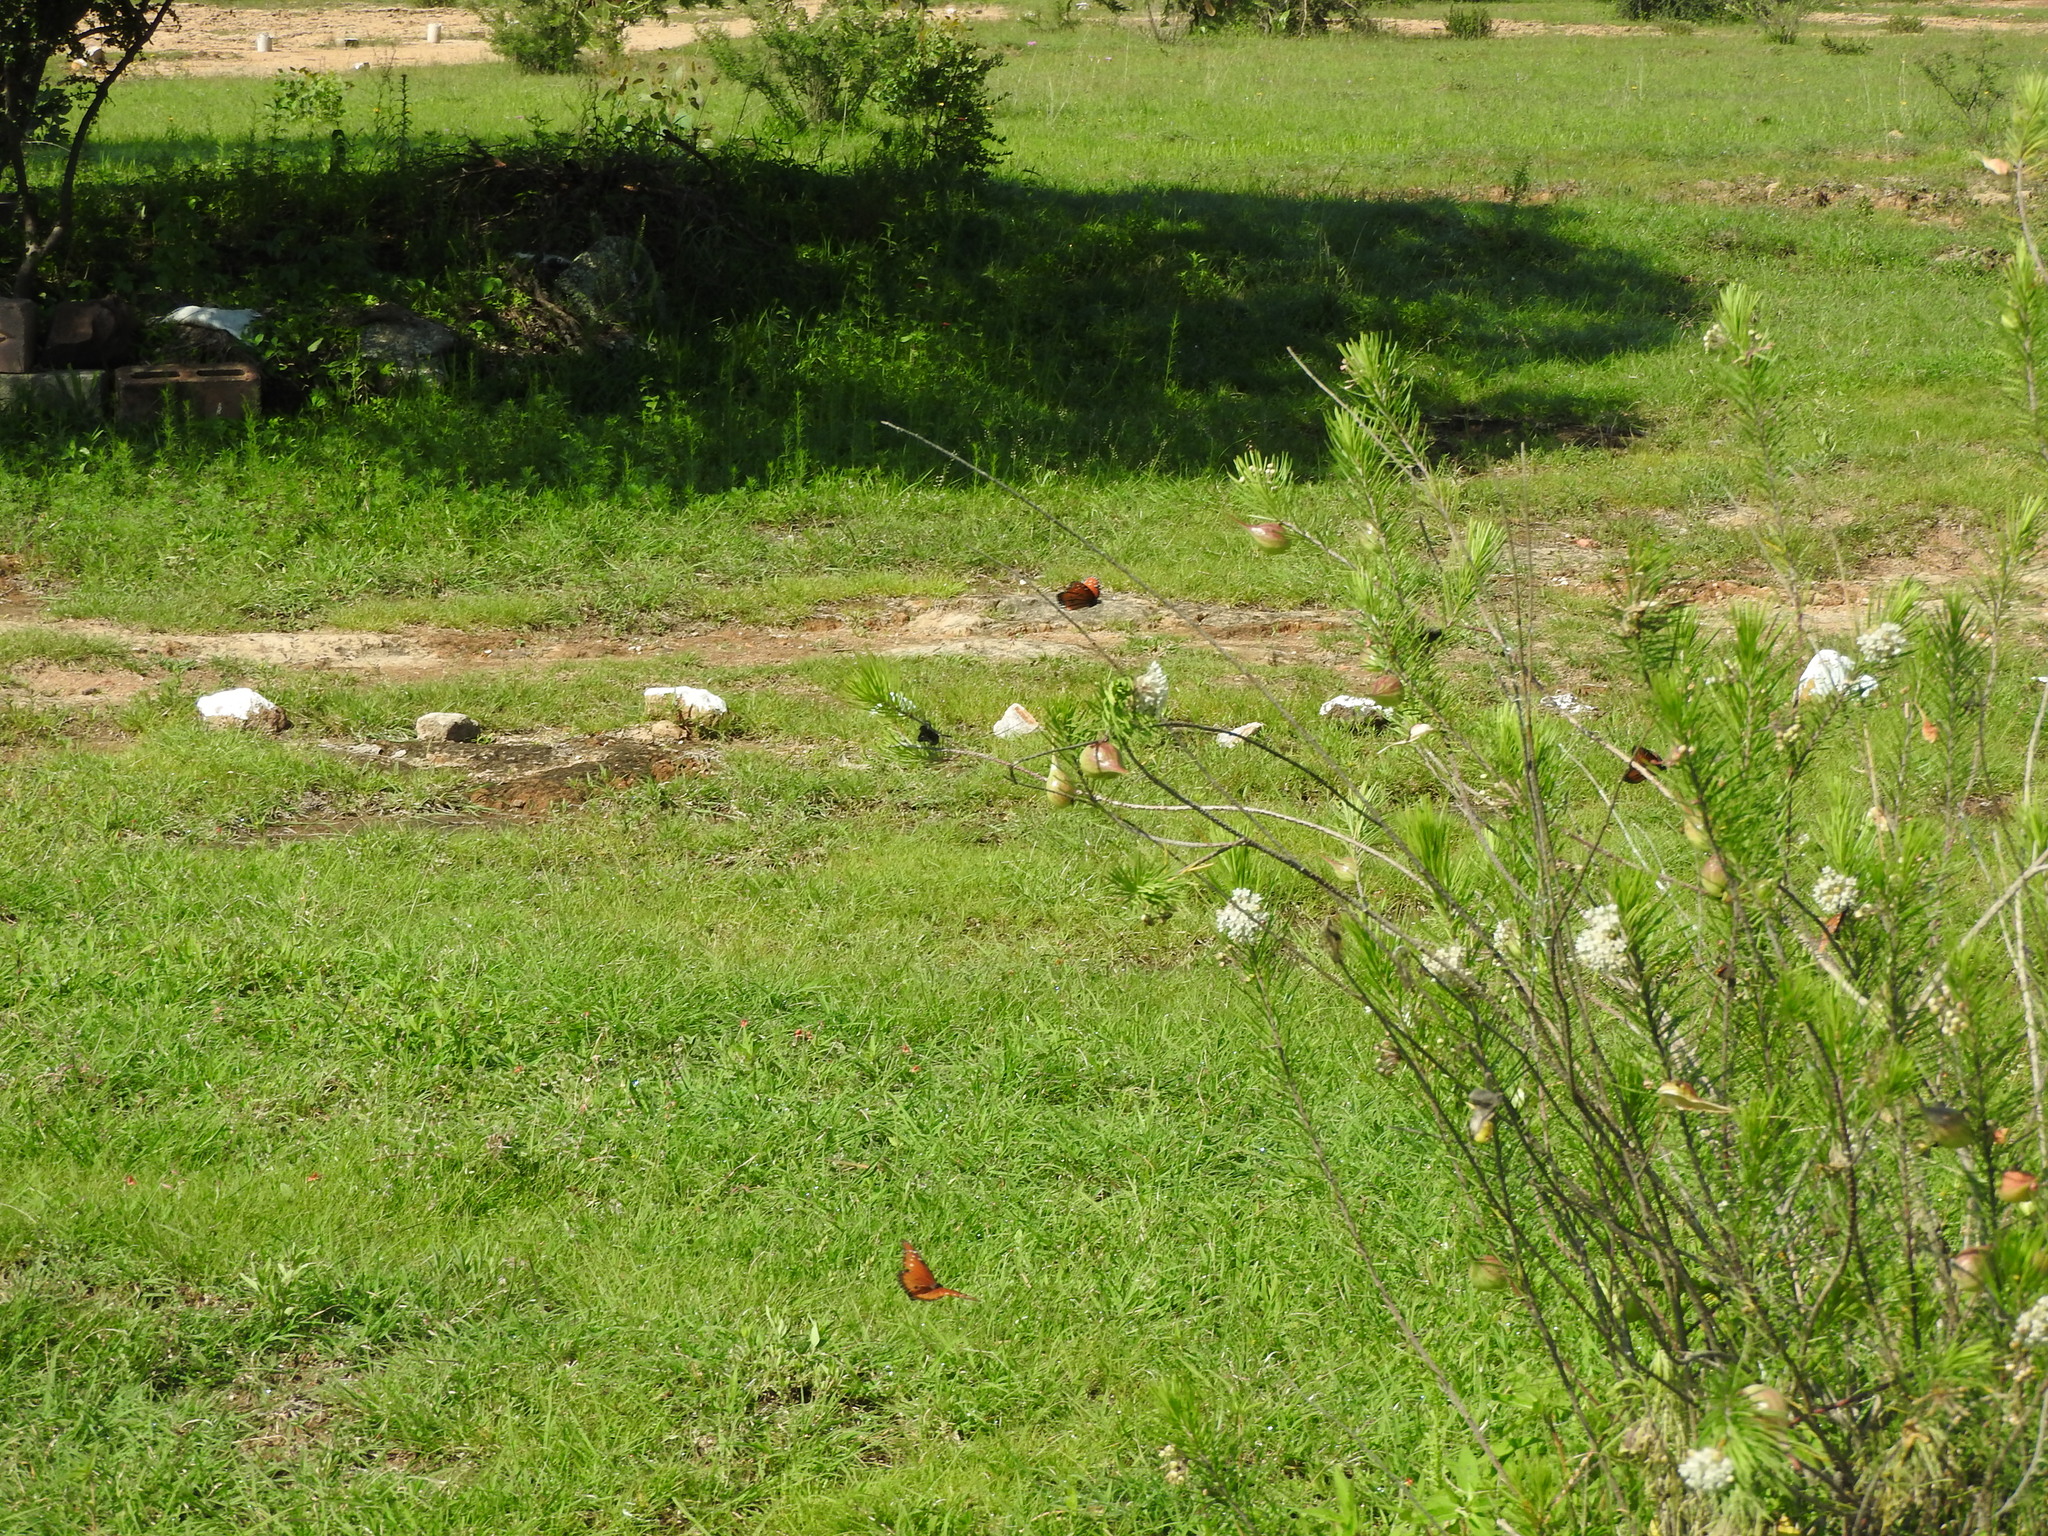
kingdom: Animalia
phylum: Arthropoda
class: Insecta
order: Lepidoptera
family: Nymphalidae
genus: Danaus
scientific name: Danaus gilippus
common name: Queen
